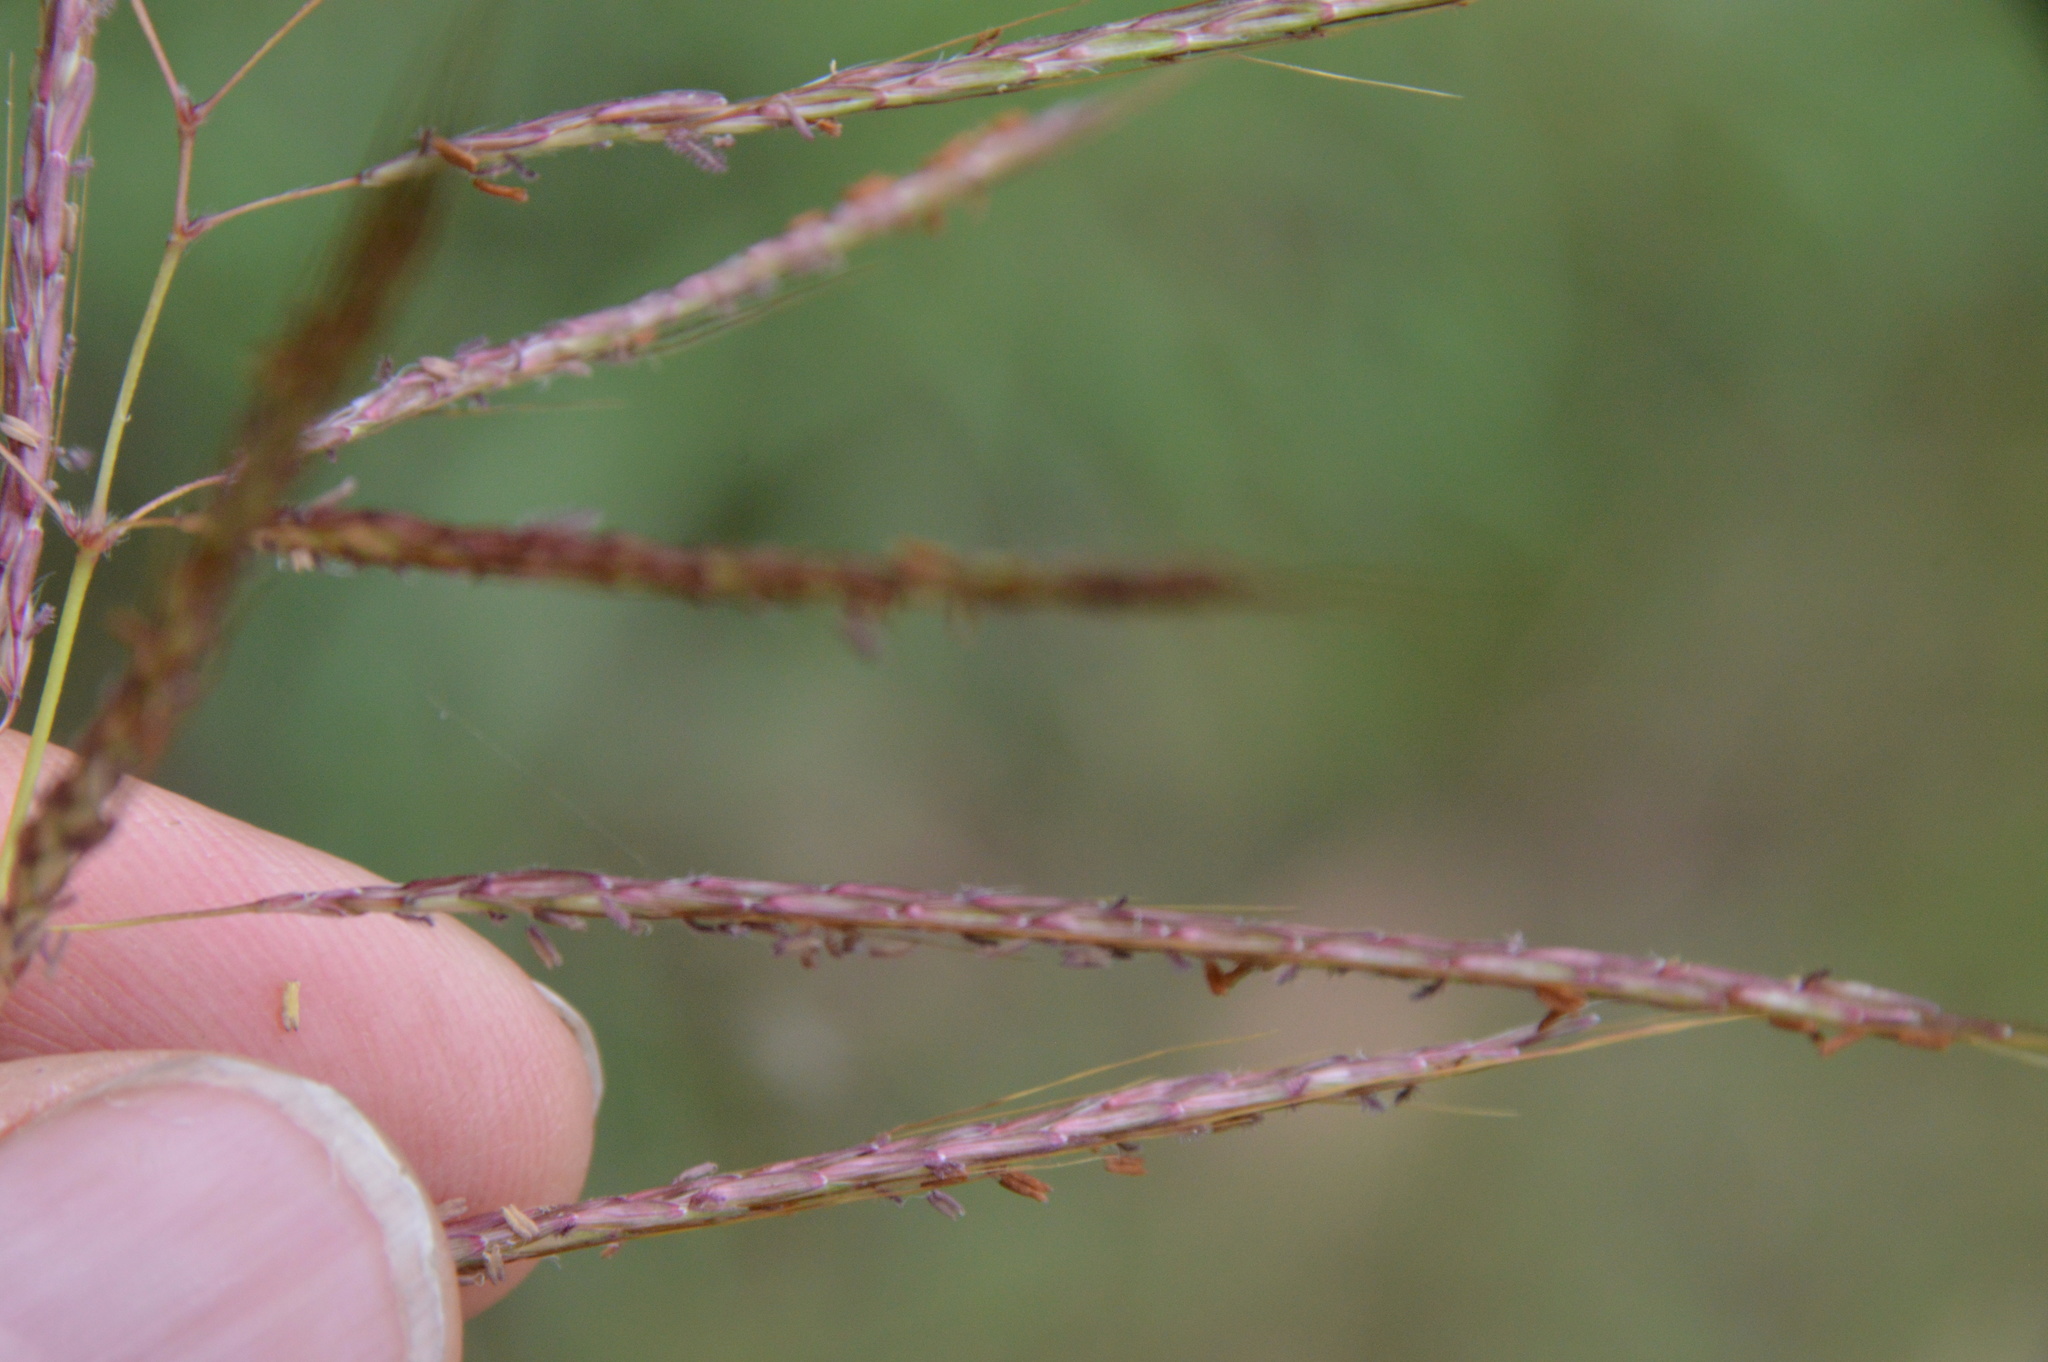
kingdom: Plantae
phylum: Tracheophyta
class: Liliopsida
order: Poales
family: Poaceae
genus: Bothriochloa
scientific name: Bothriochloa bladhii
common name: Caucasian bluestem
